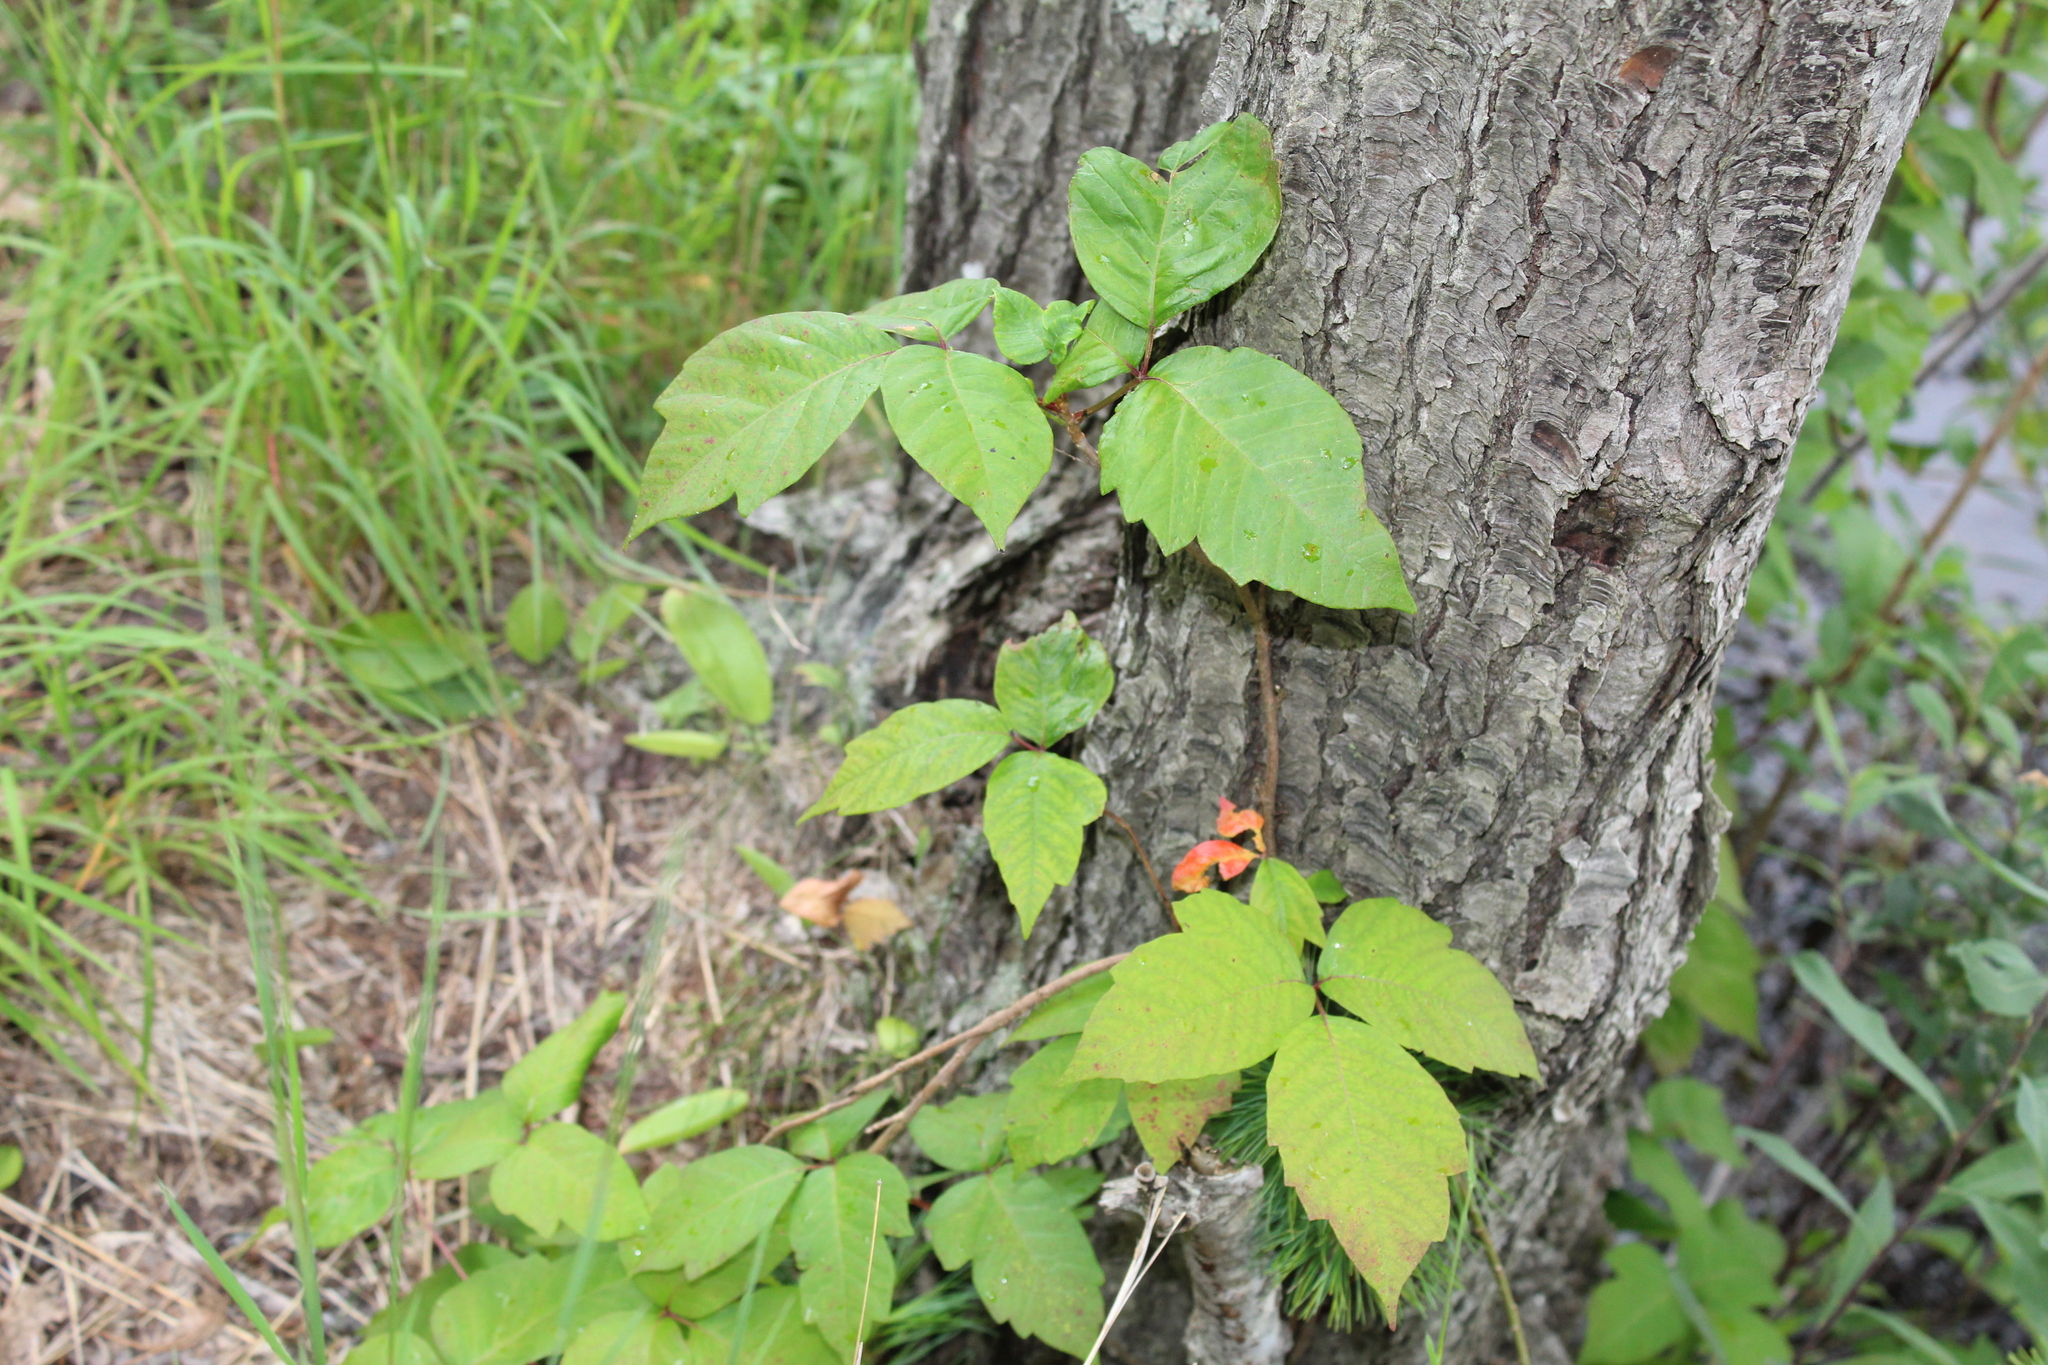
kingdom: Plantae
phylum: Tracheophyta
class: Magnoliopsida
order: Sapindales
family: Anacardiaceae
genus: Toxicodendron
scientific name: Toxicodendron radicans
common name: Poison ivy
